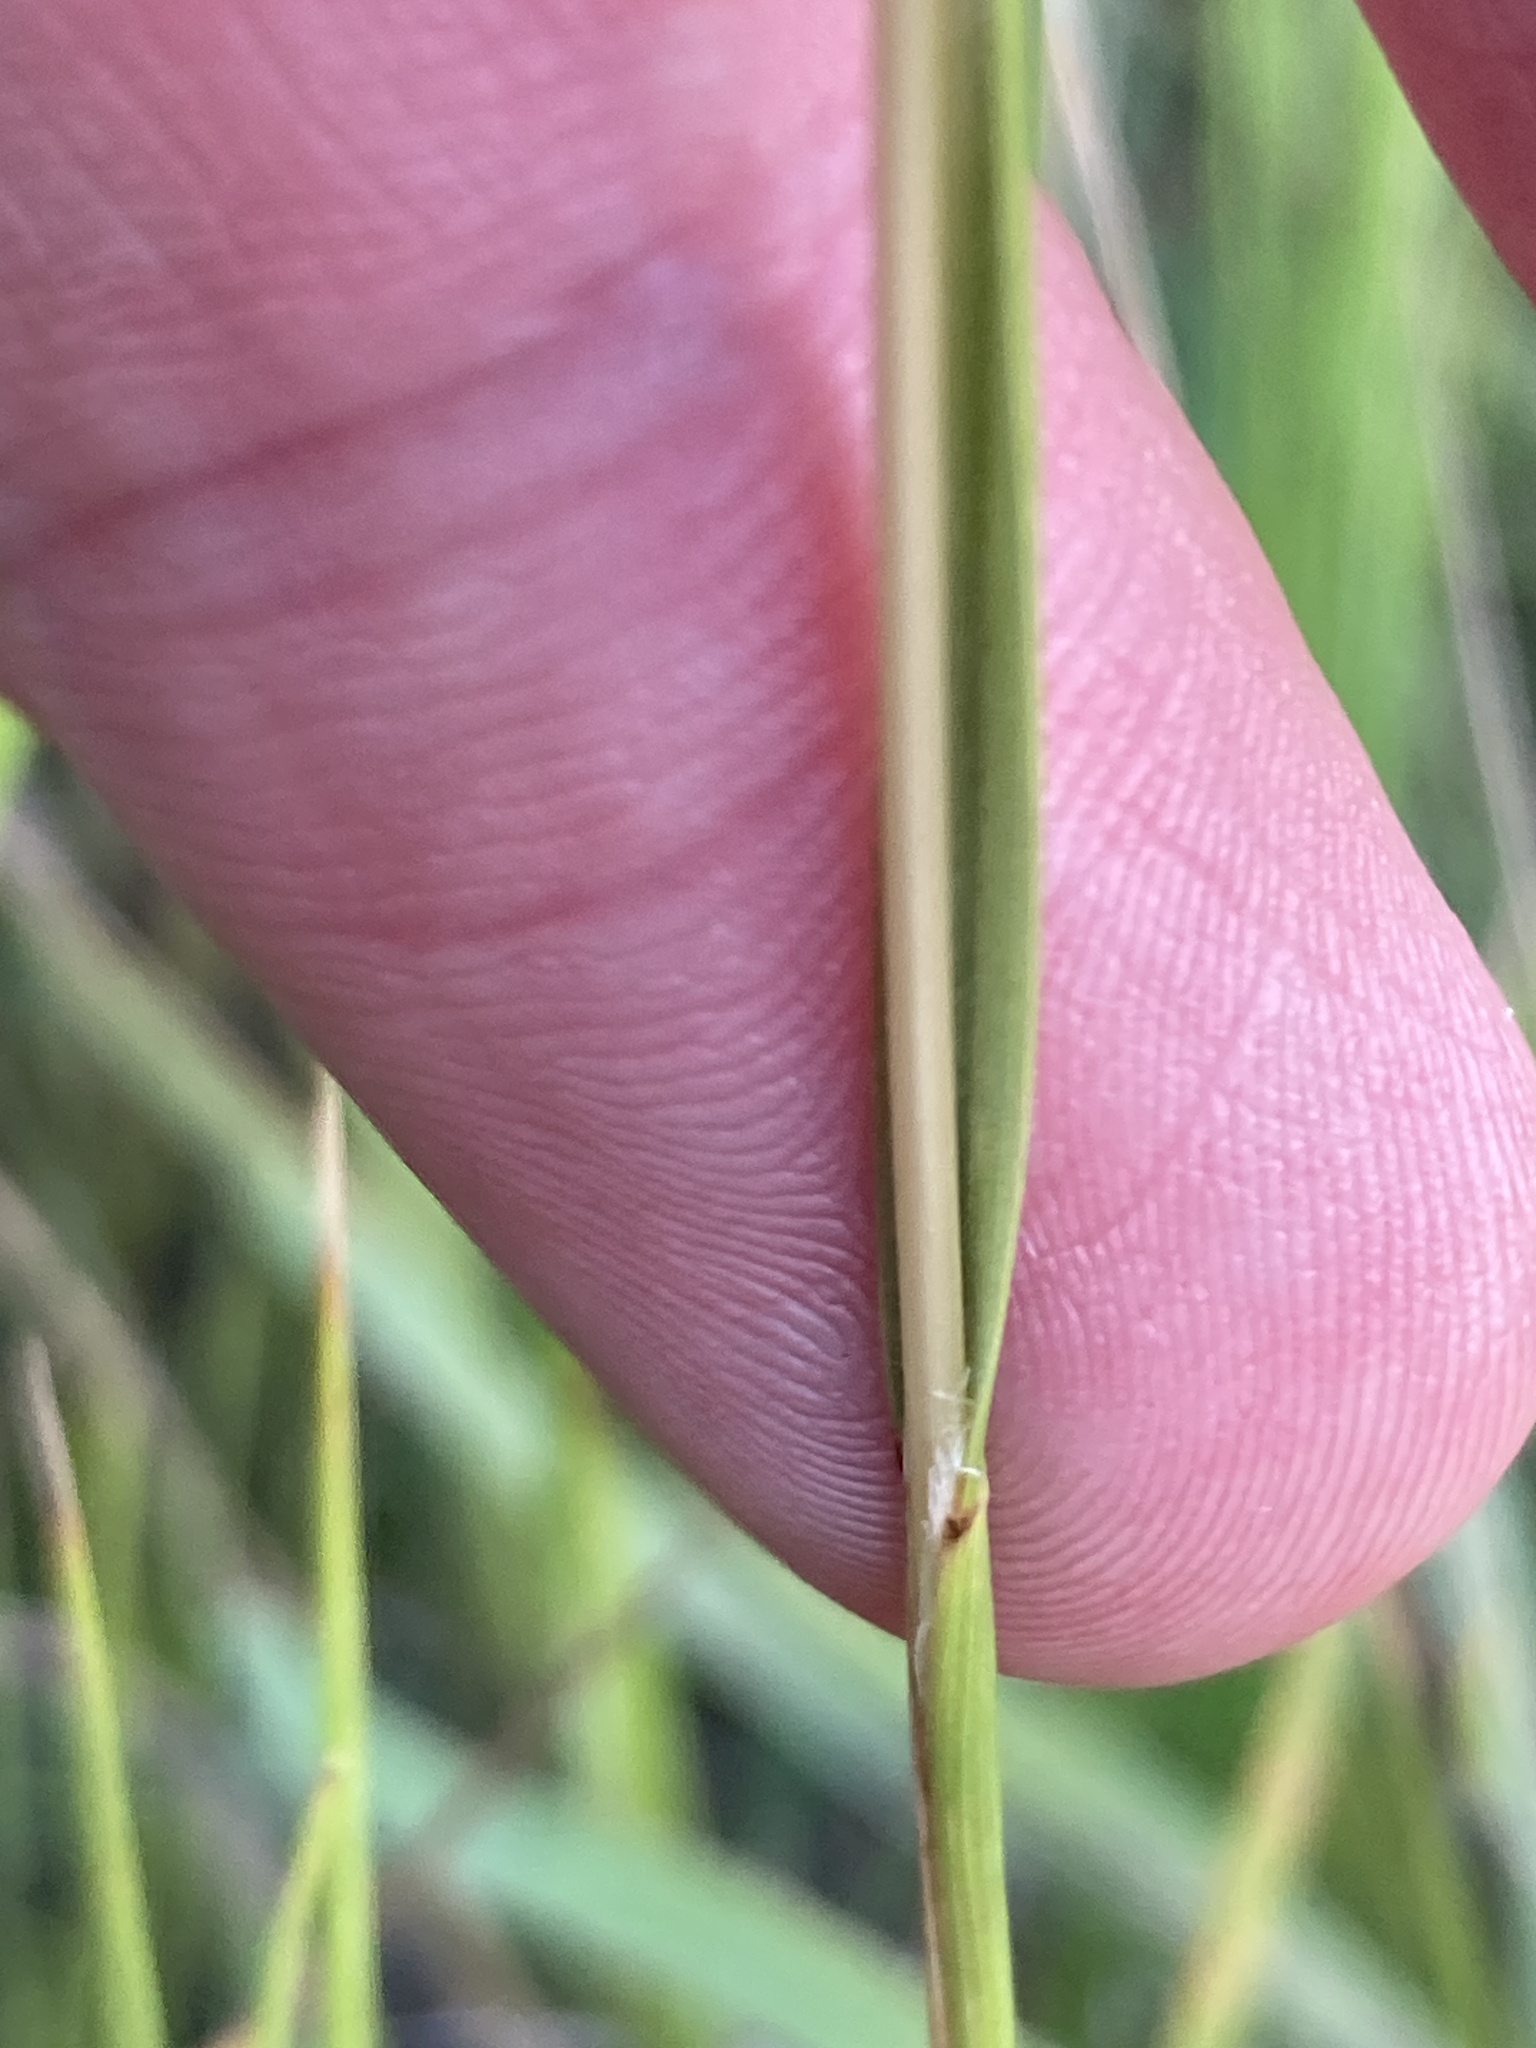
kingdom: Plantae
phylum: Tracheophyta
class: Liliopsida
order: Poales
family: Poaceae
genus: Melica
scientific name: Melica transsilvanica
